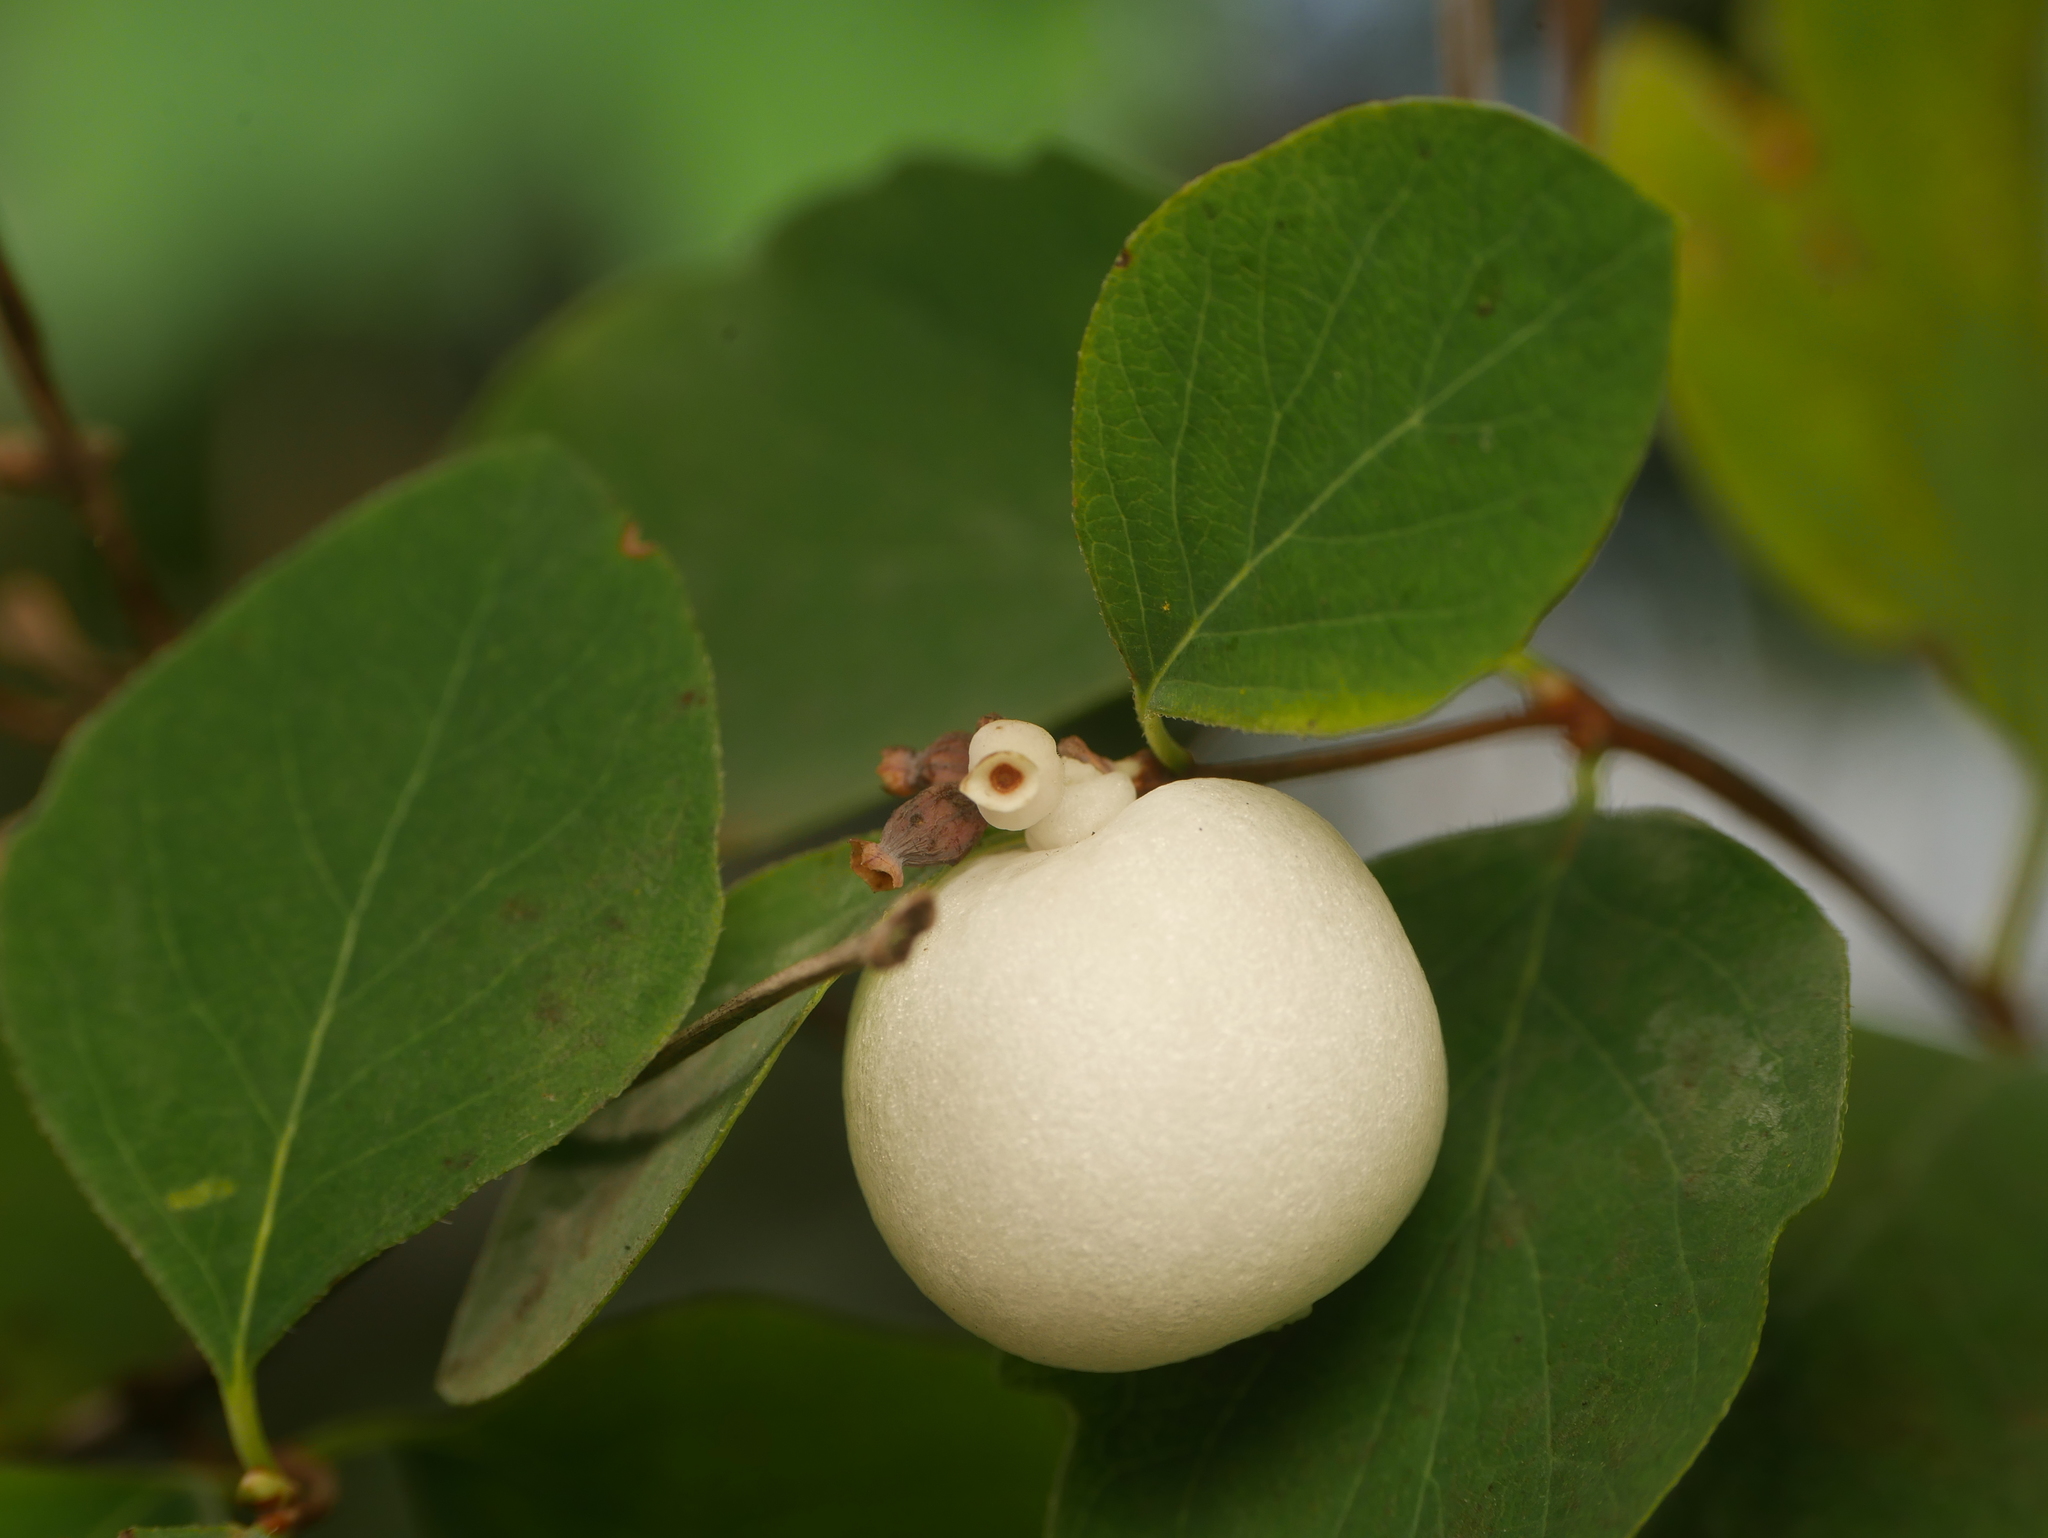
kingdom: Plantae
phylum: Tracheophyta
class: Magnoliopsida
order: Dipsacales
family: Caprifoliaceae
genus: Symphoricarpos
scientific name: Symphoricarpos albus
